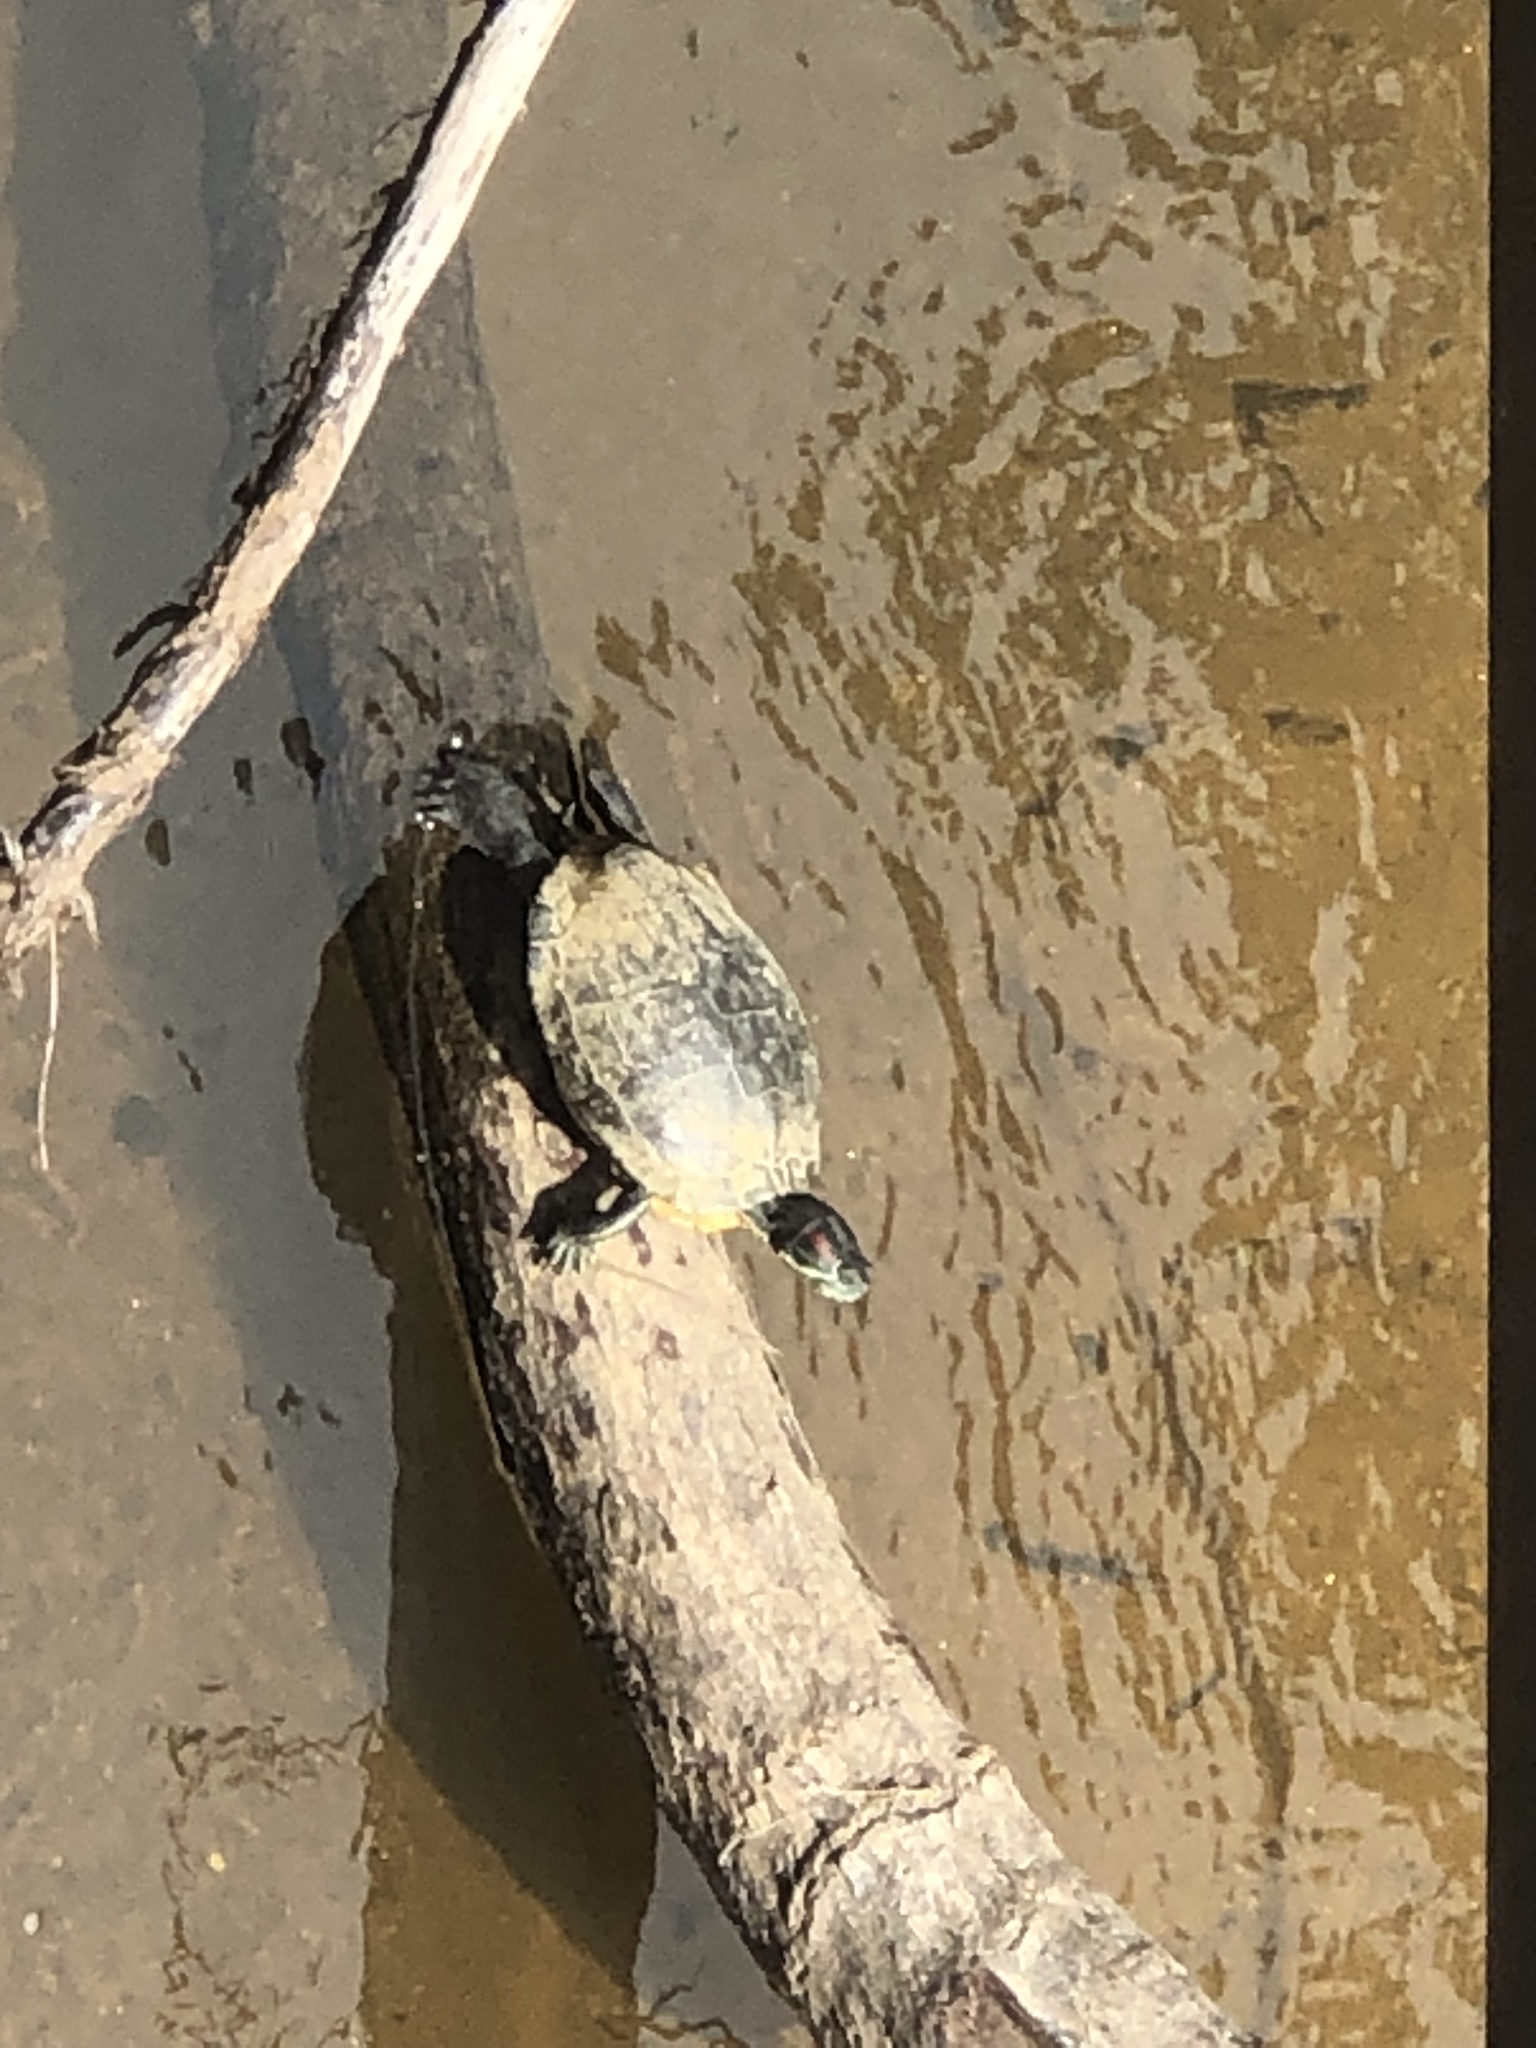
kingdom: Animalia
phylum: Chordata
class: Testudines
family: Emydidae
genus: Trachemys
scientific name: Trachemys scripta
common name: Slider
